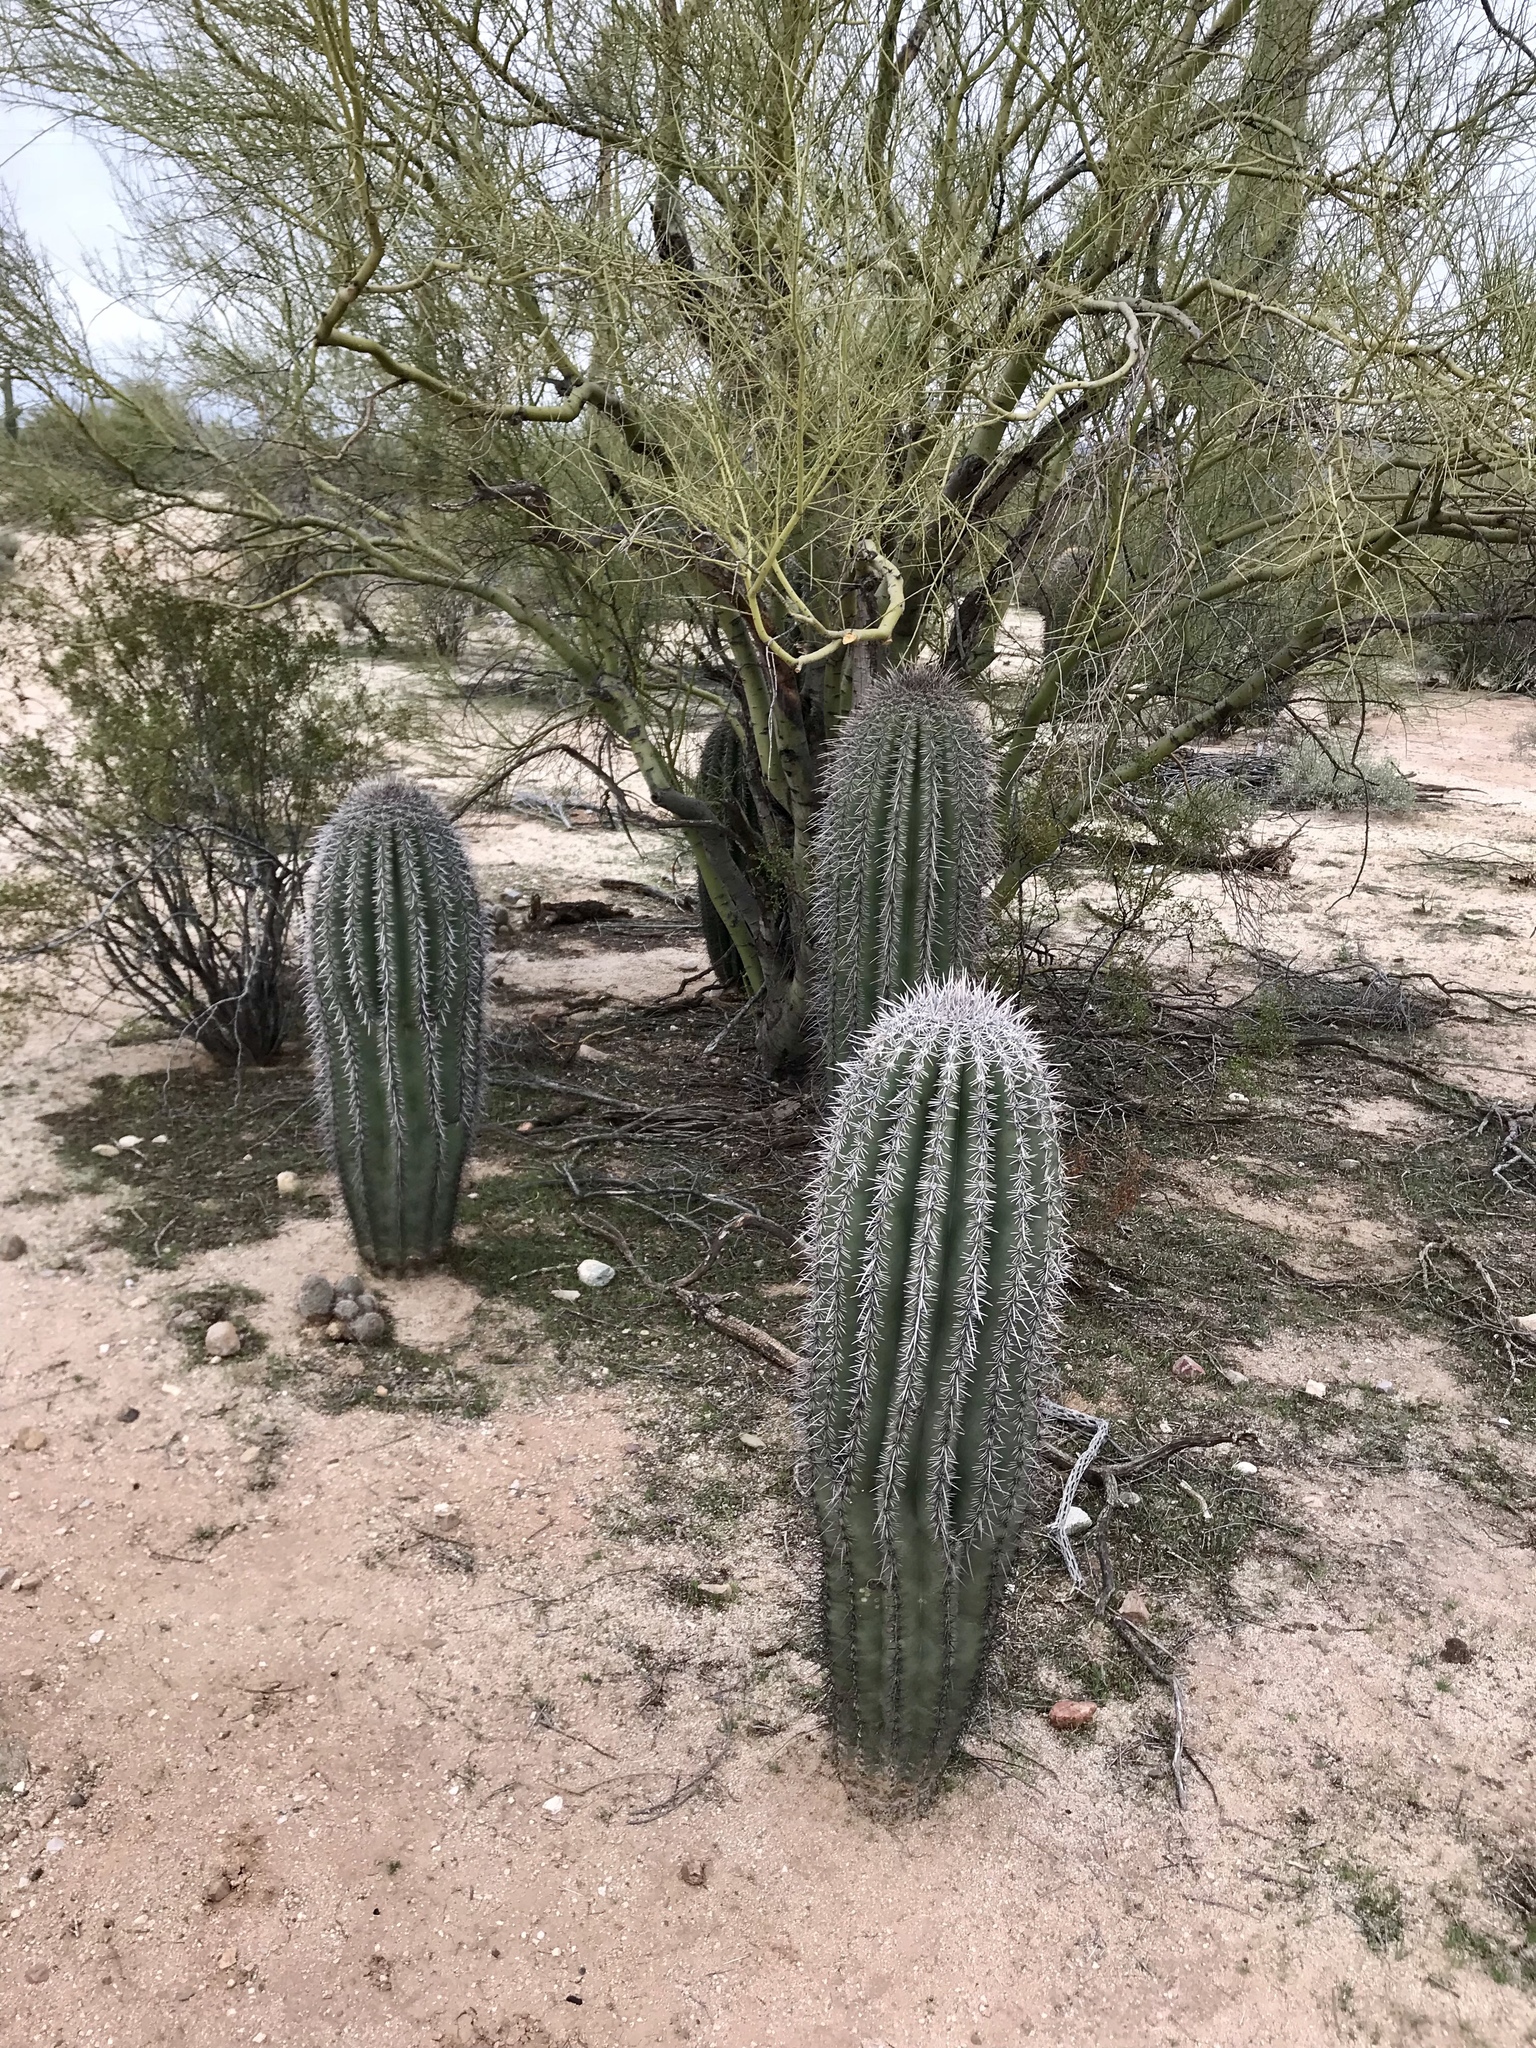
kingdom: Plantae
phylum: Tracheophyta
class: Magnoliopsida
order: Caryophyllales
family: Cactaceae
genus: Carnegiea
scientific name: Carnegiea gigantea
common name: Saguaro
